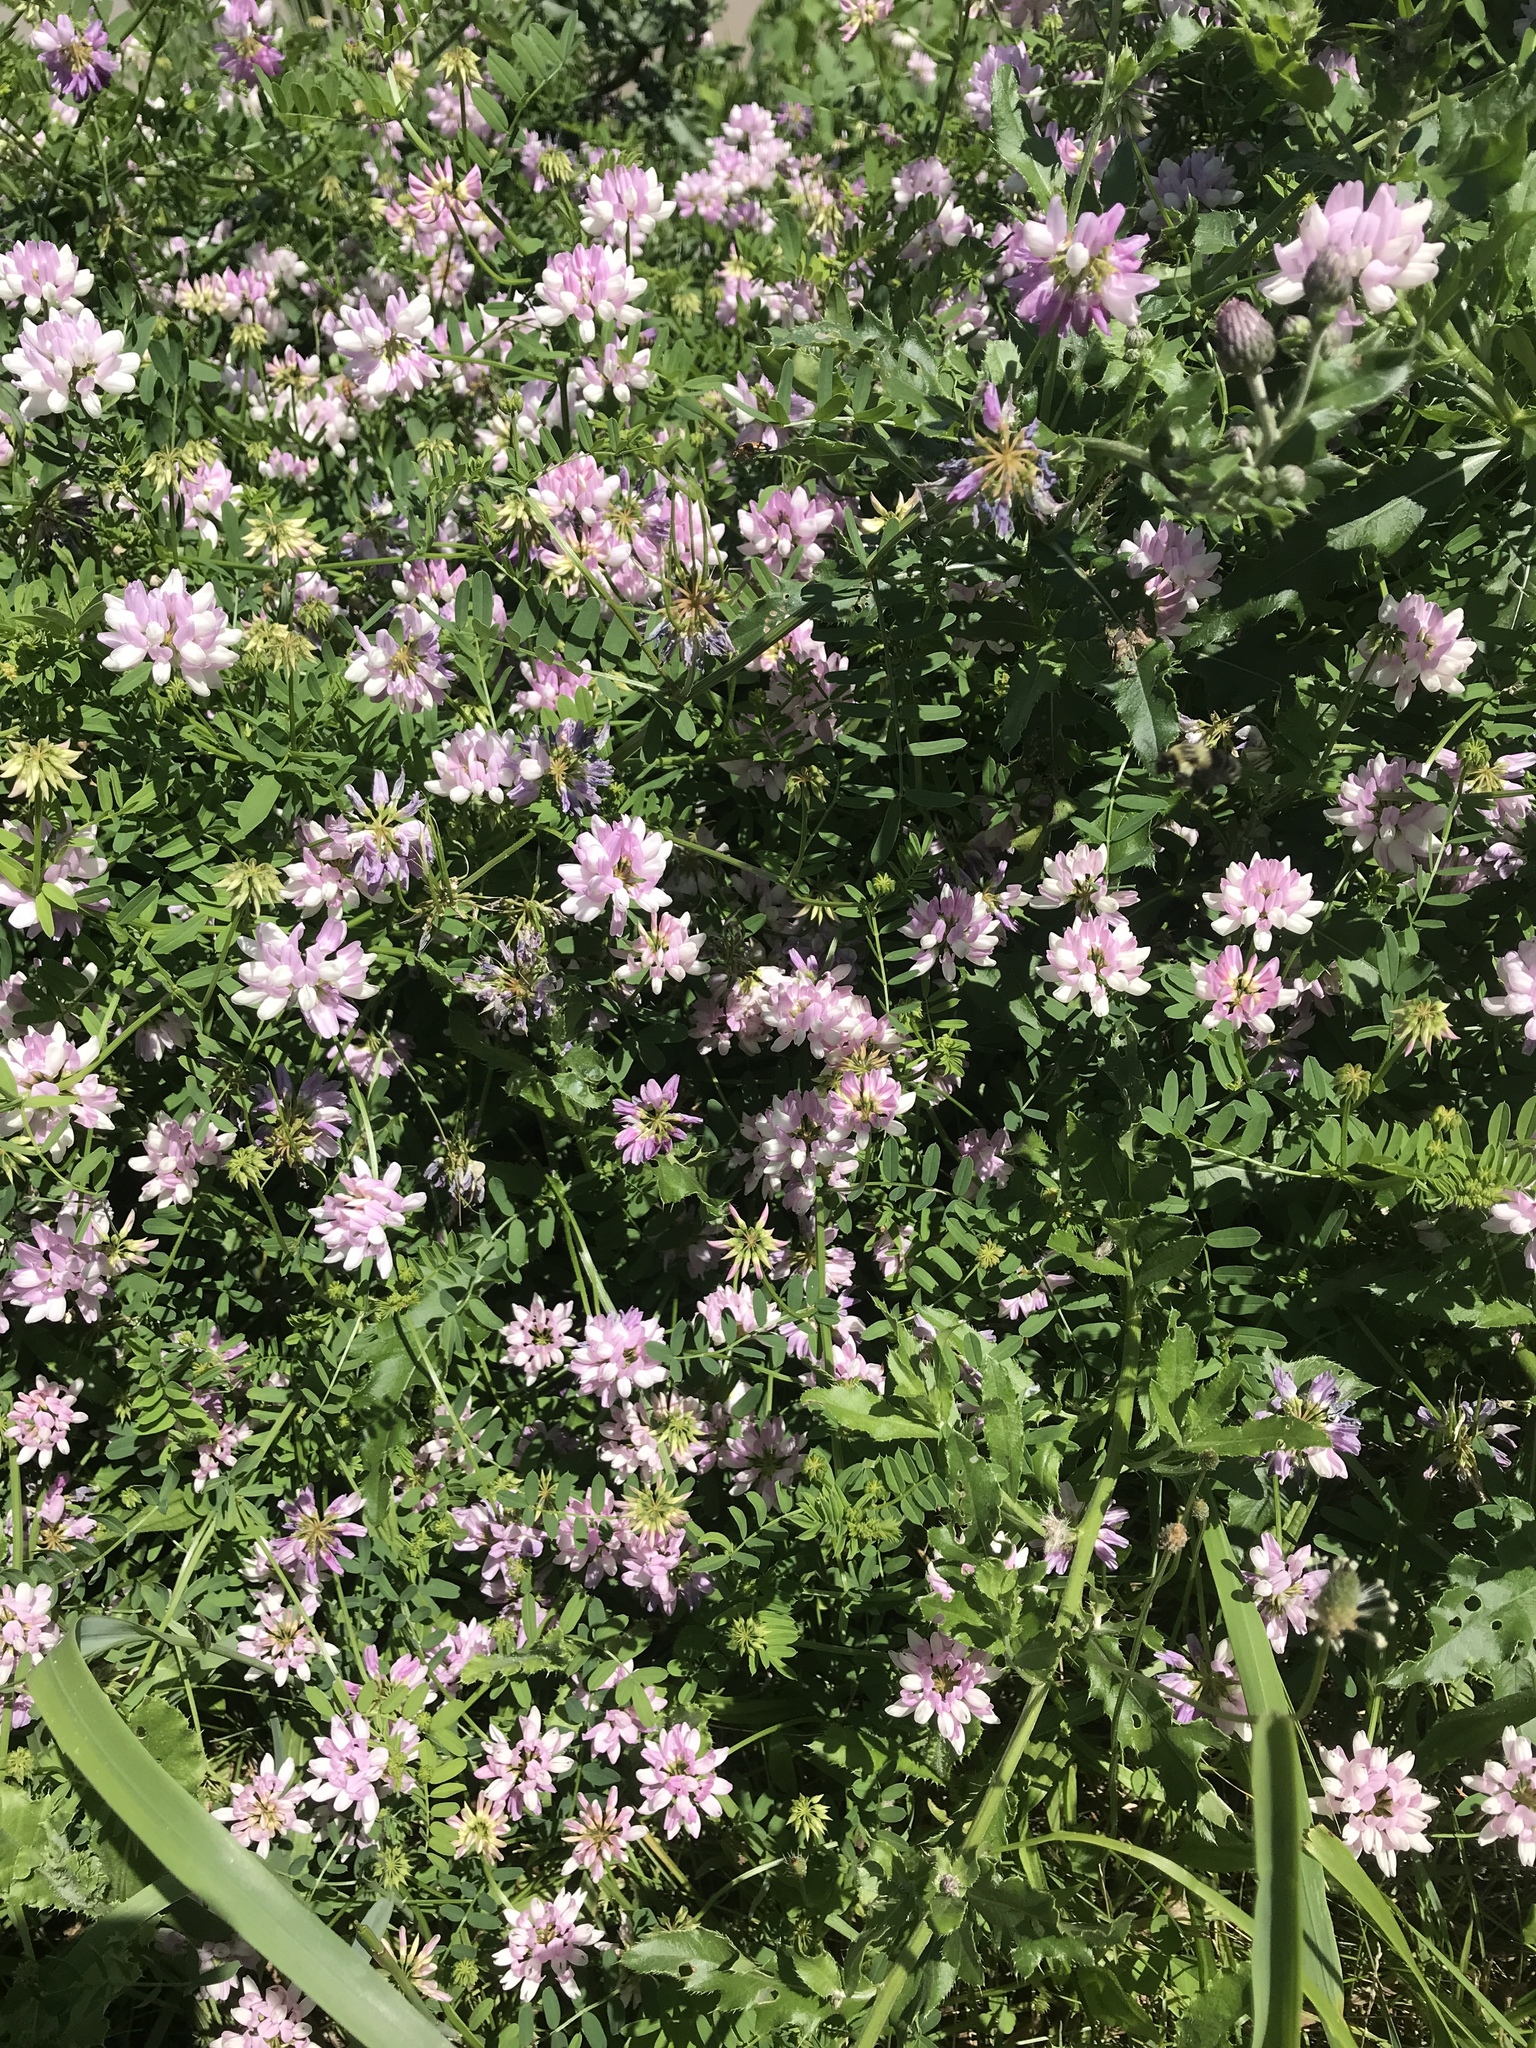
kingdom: Plantae
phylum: Tracheophyta
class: Magnoliopsida
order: Fabales
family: Fabaceae
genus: Coronilla
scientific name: Coronilla varia
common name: Crownvetch
